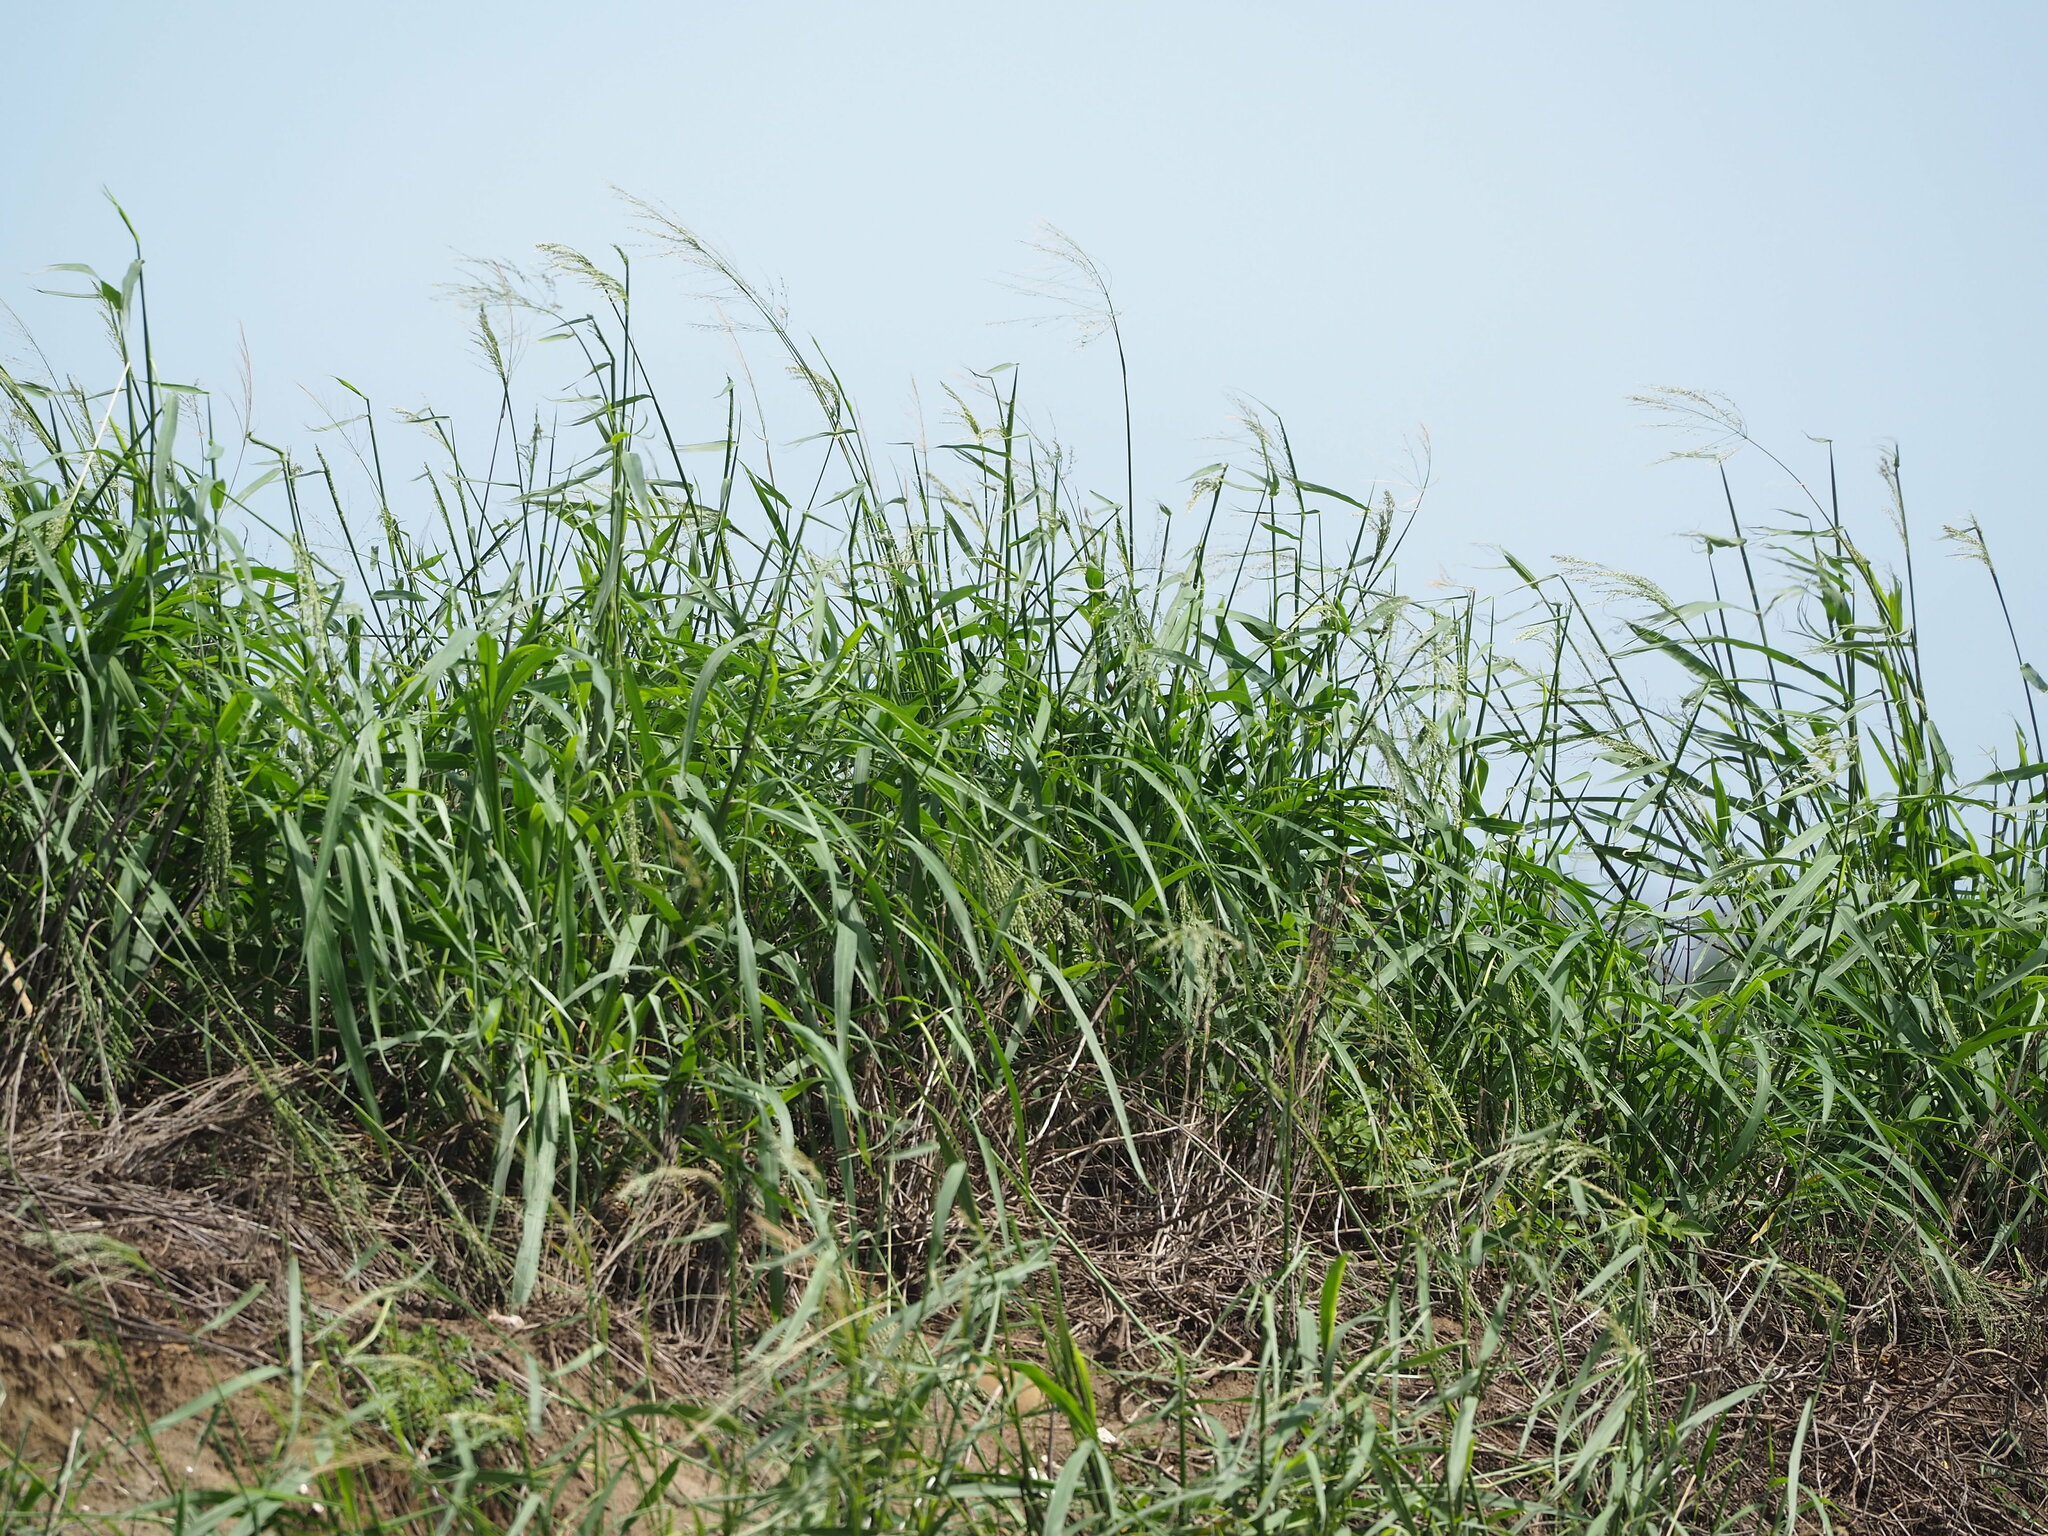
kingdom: Plantae
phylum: Tracheophyta
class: Liliopsida
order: Poales
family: Poaceae
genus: Megathyrsus
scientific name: Megathyrsus maximus
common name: Guineagrass
